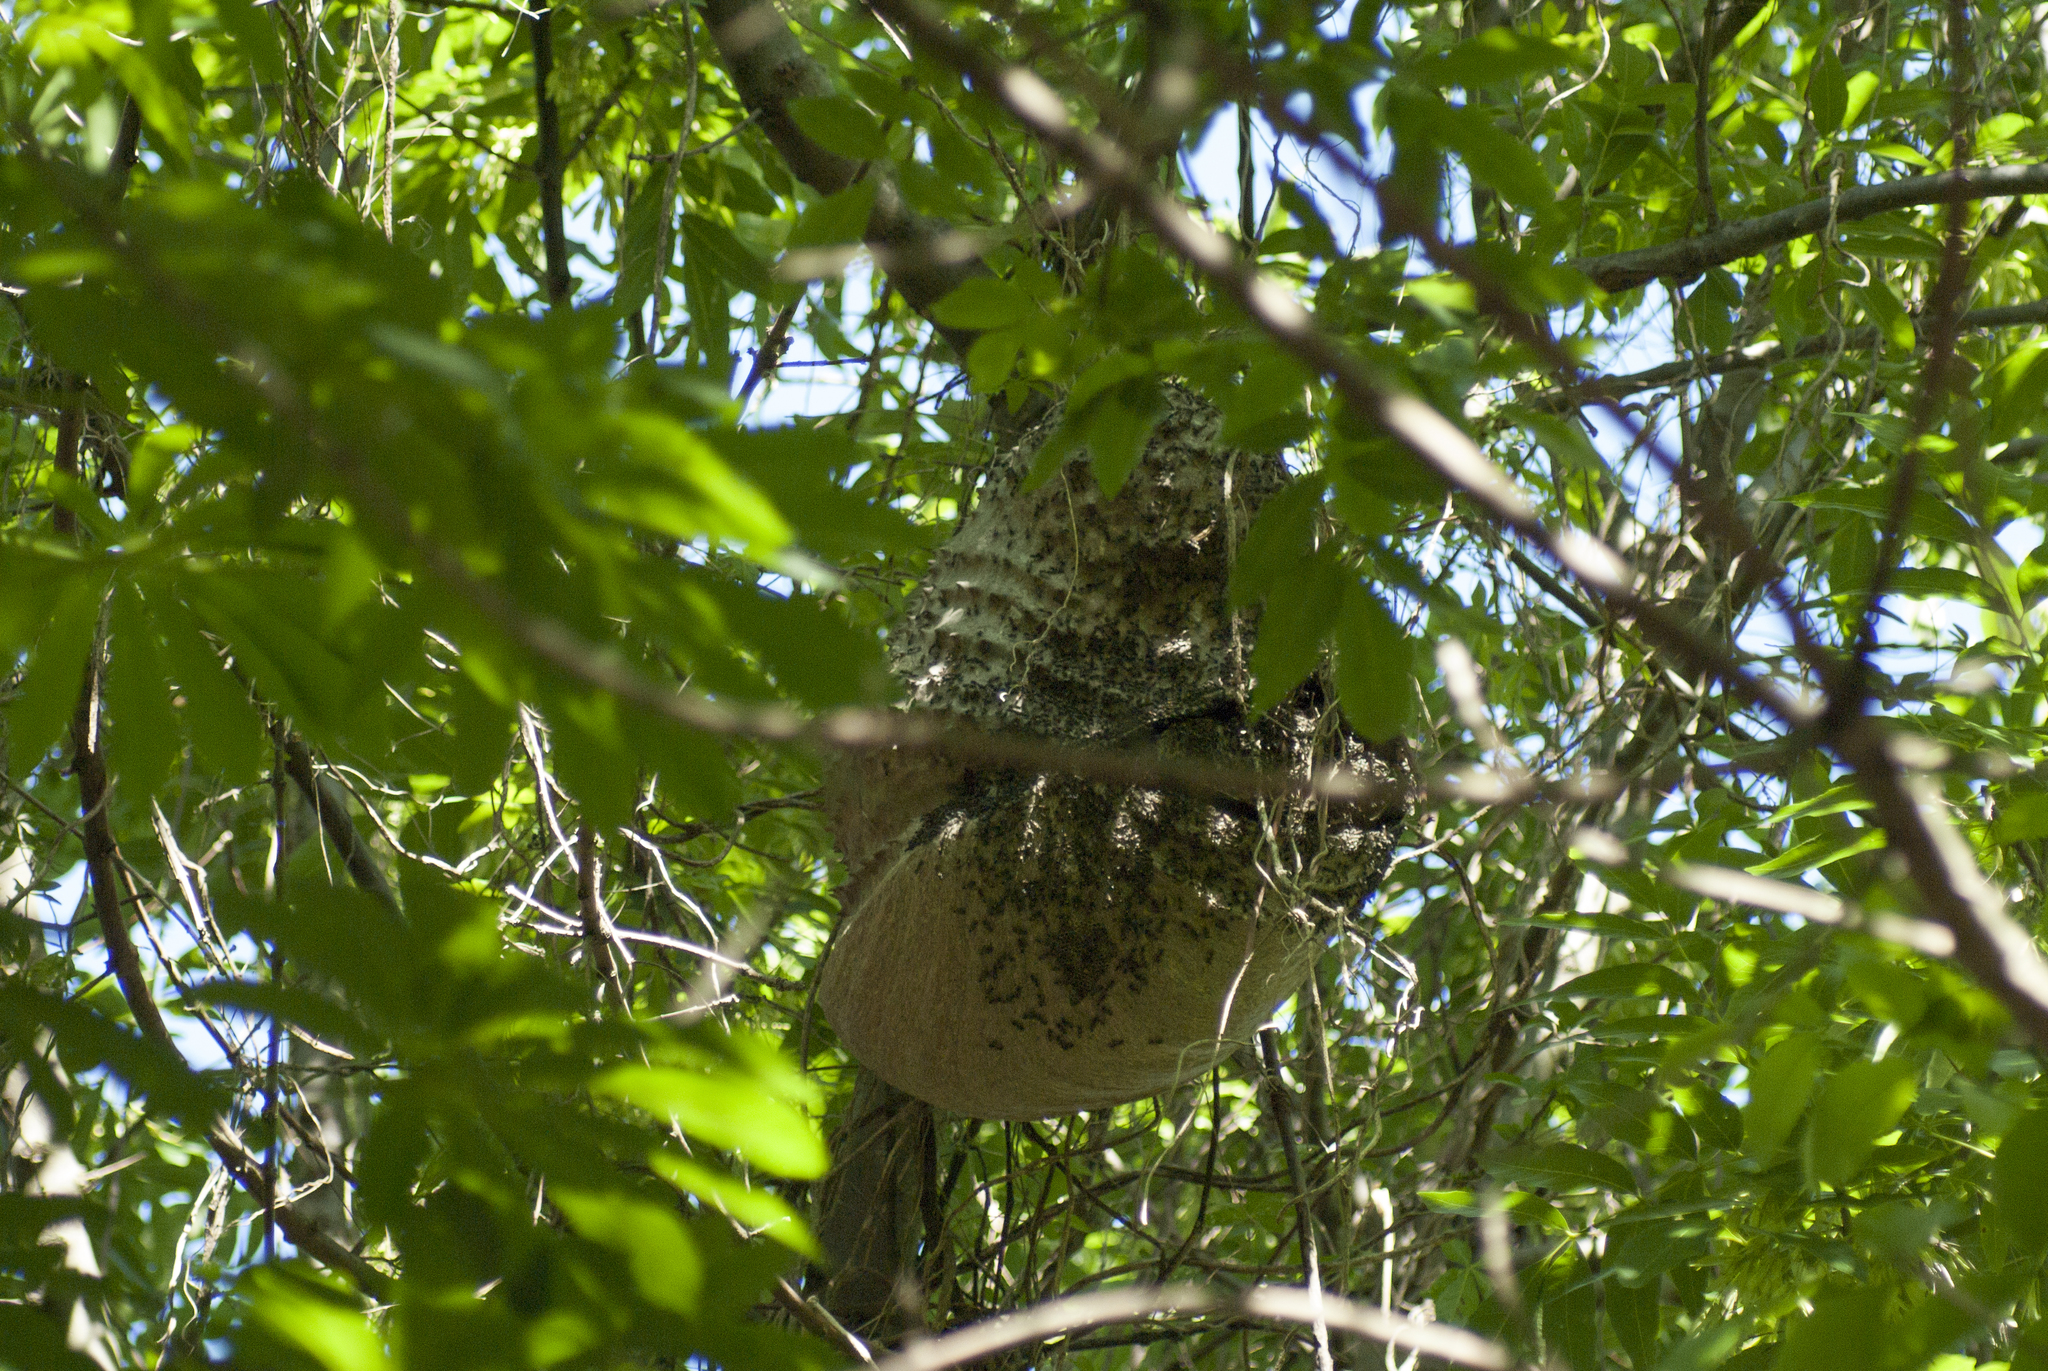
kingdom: Animalia
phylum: Arthropoda
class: Insecta
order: Hymenoptera
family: Eumenidae
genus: Polybia
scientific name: Polybia scutellaris
